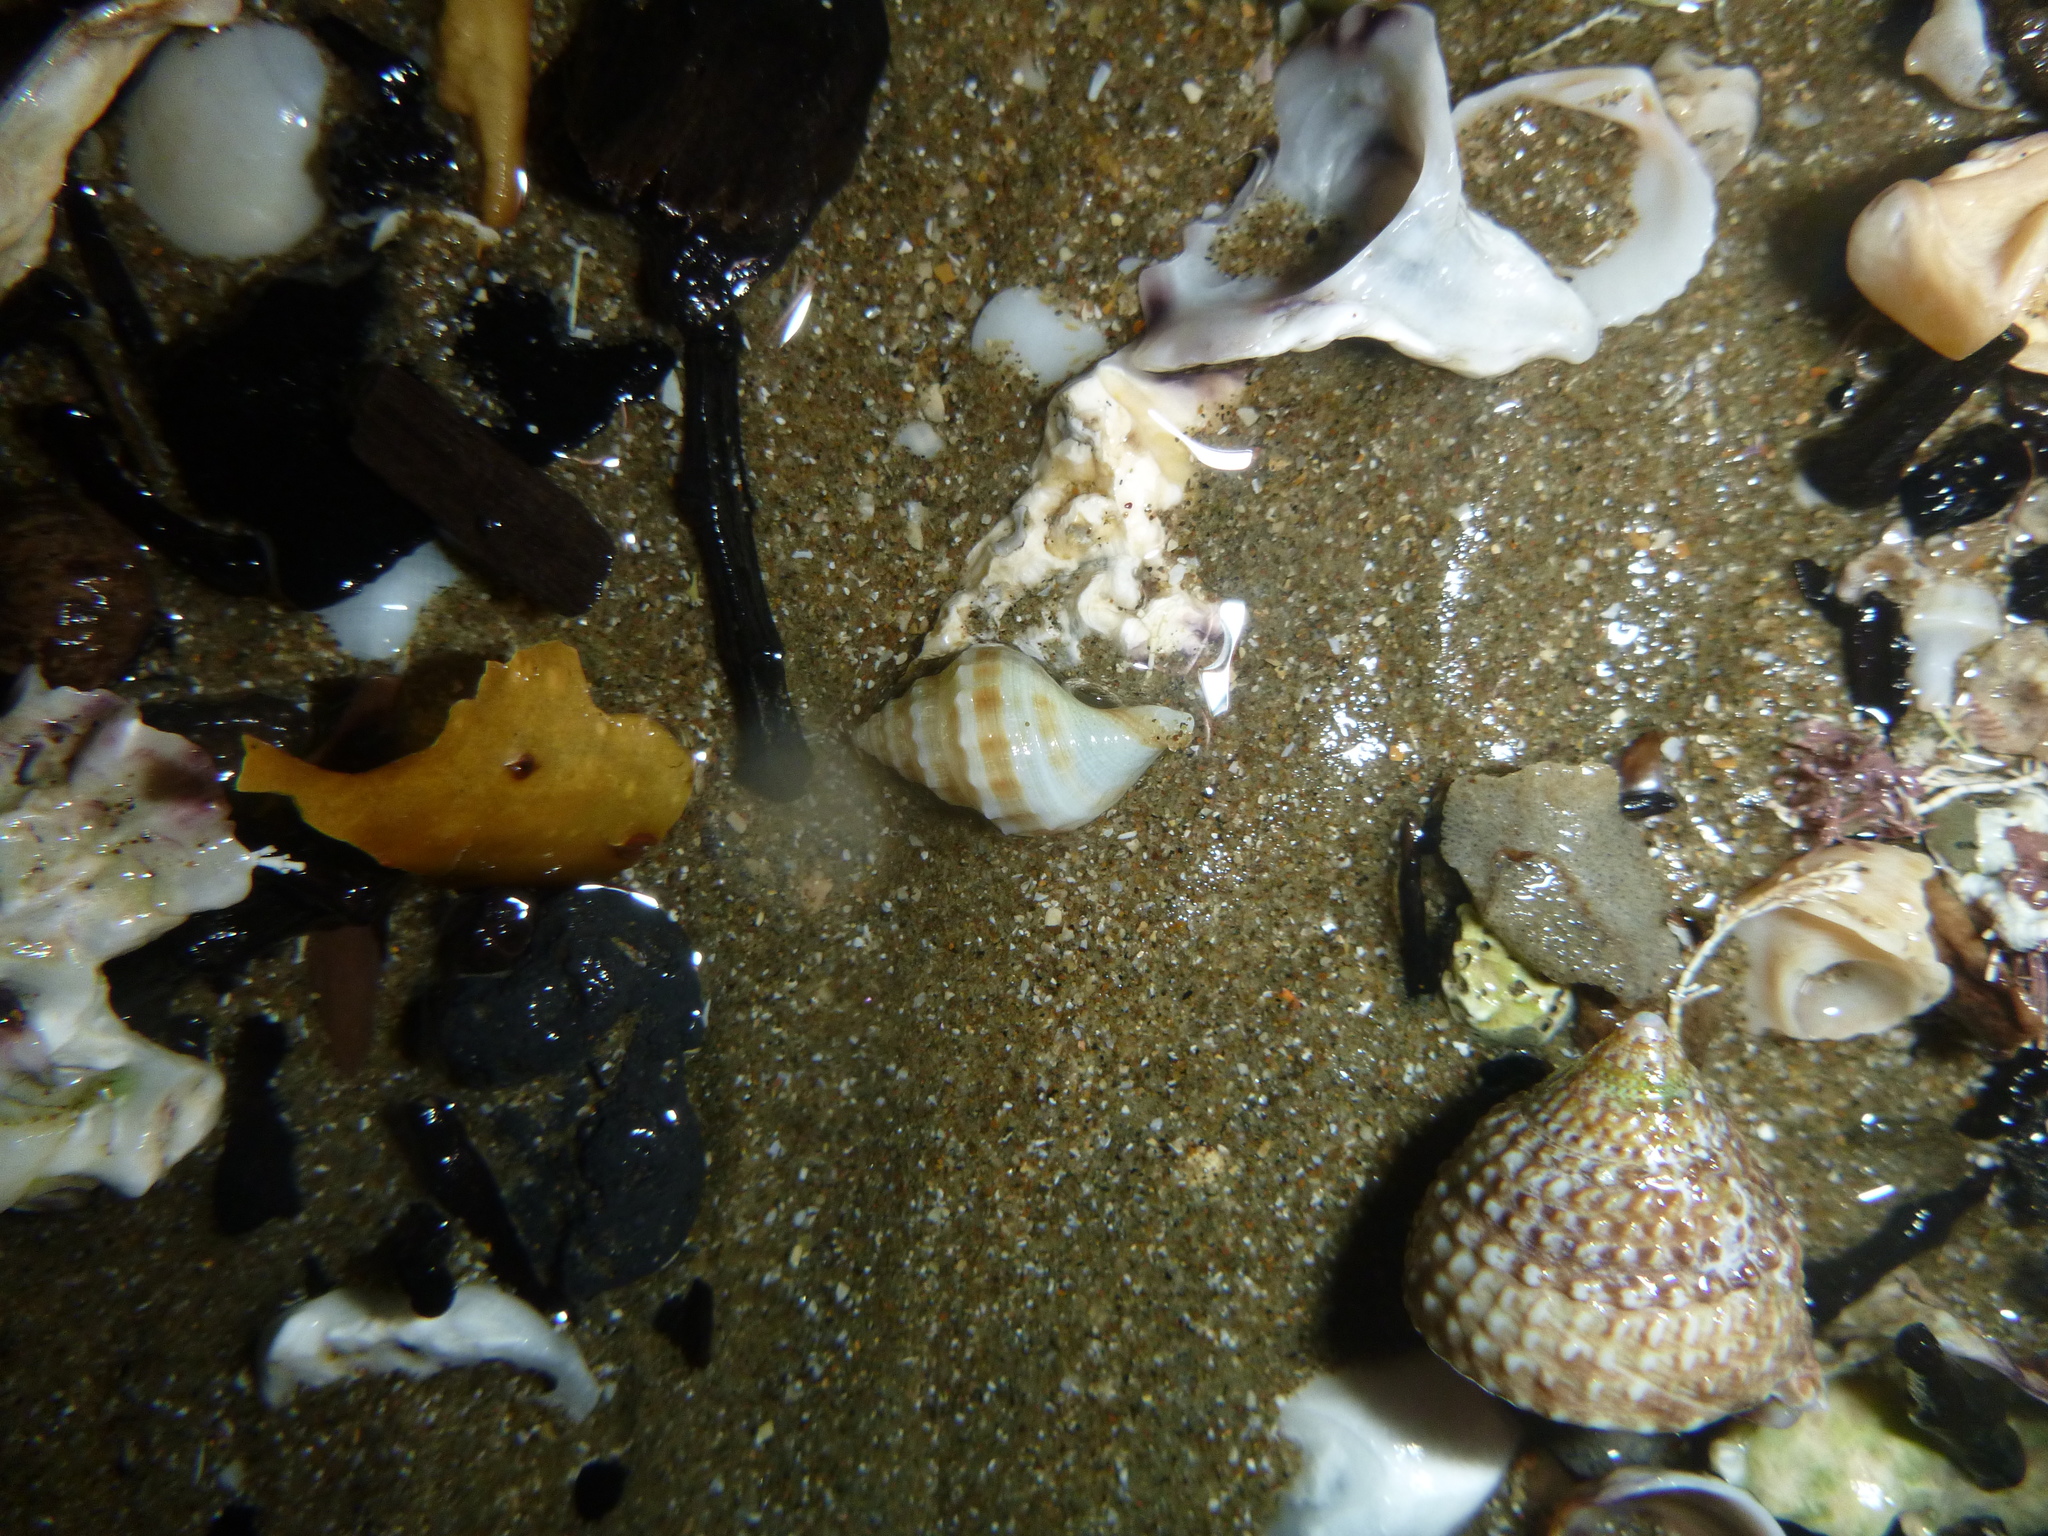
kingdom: Animalia
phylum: Mollusca
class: Gastropoda
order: Trochida
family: Trochidae
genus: Coelotrochus
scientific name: Coelotrochus viridis
